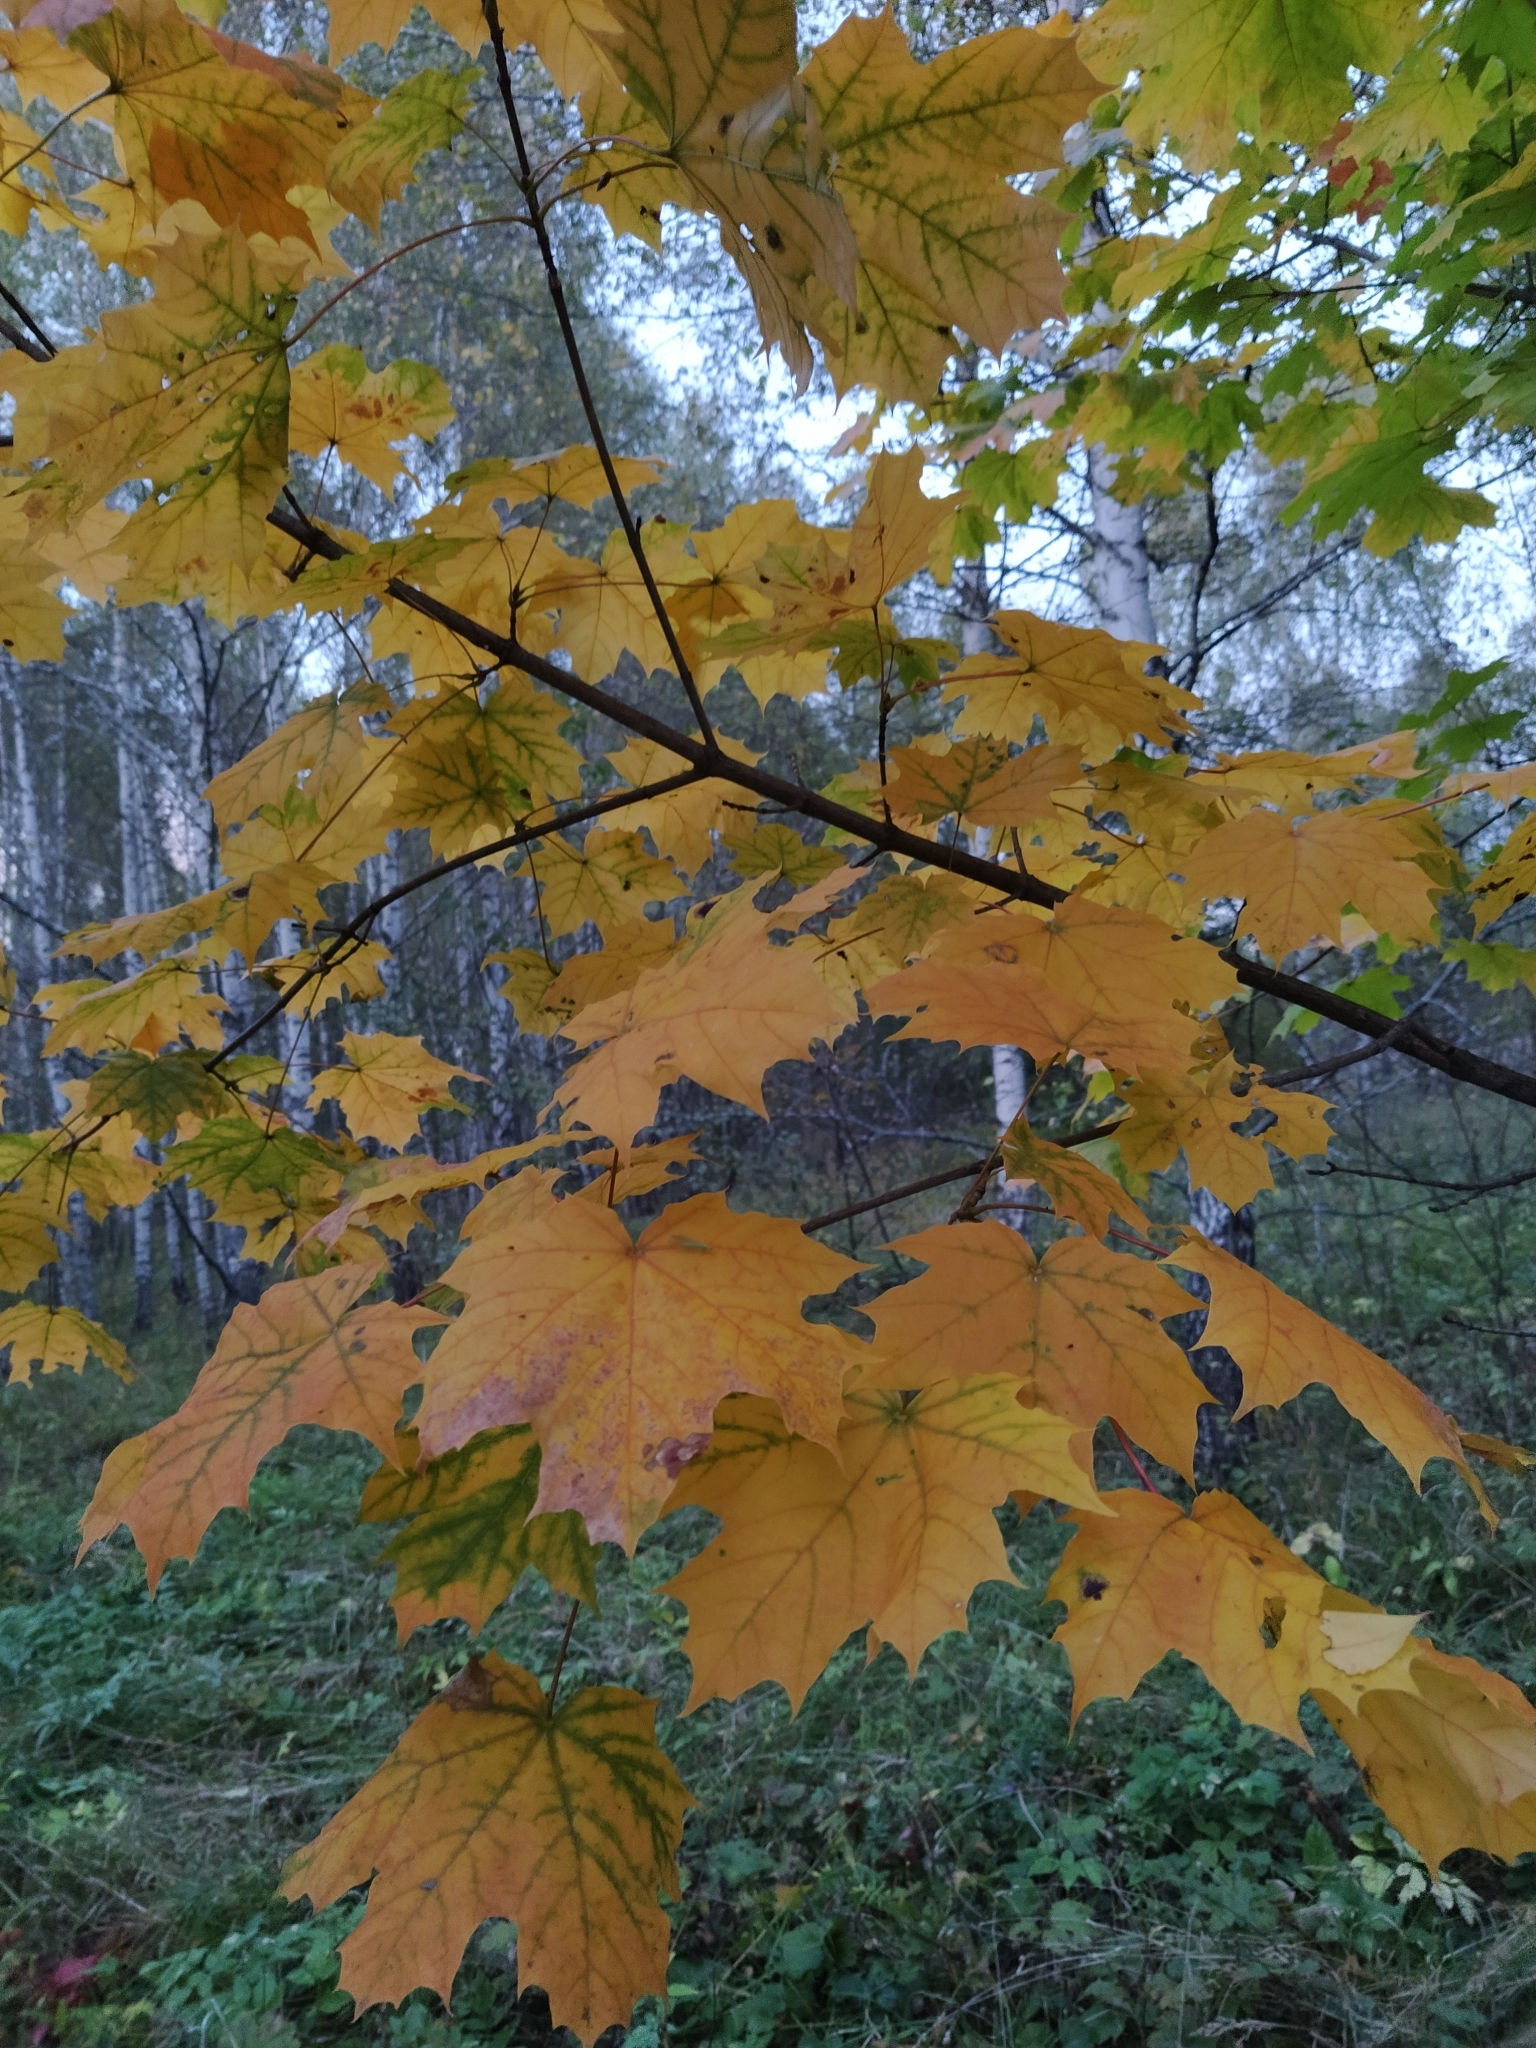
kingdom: Plantae
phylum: Tracheophyta
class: Magnoliopsida
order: Sapindales
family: Sapindaceae
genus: Acer
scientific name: Acer platanoides
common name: Norway maple
